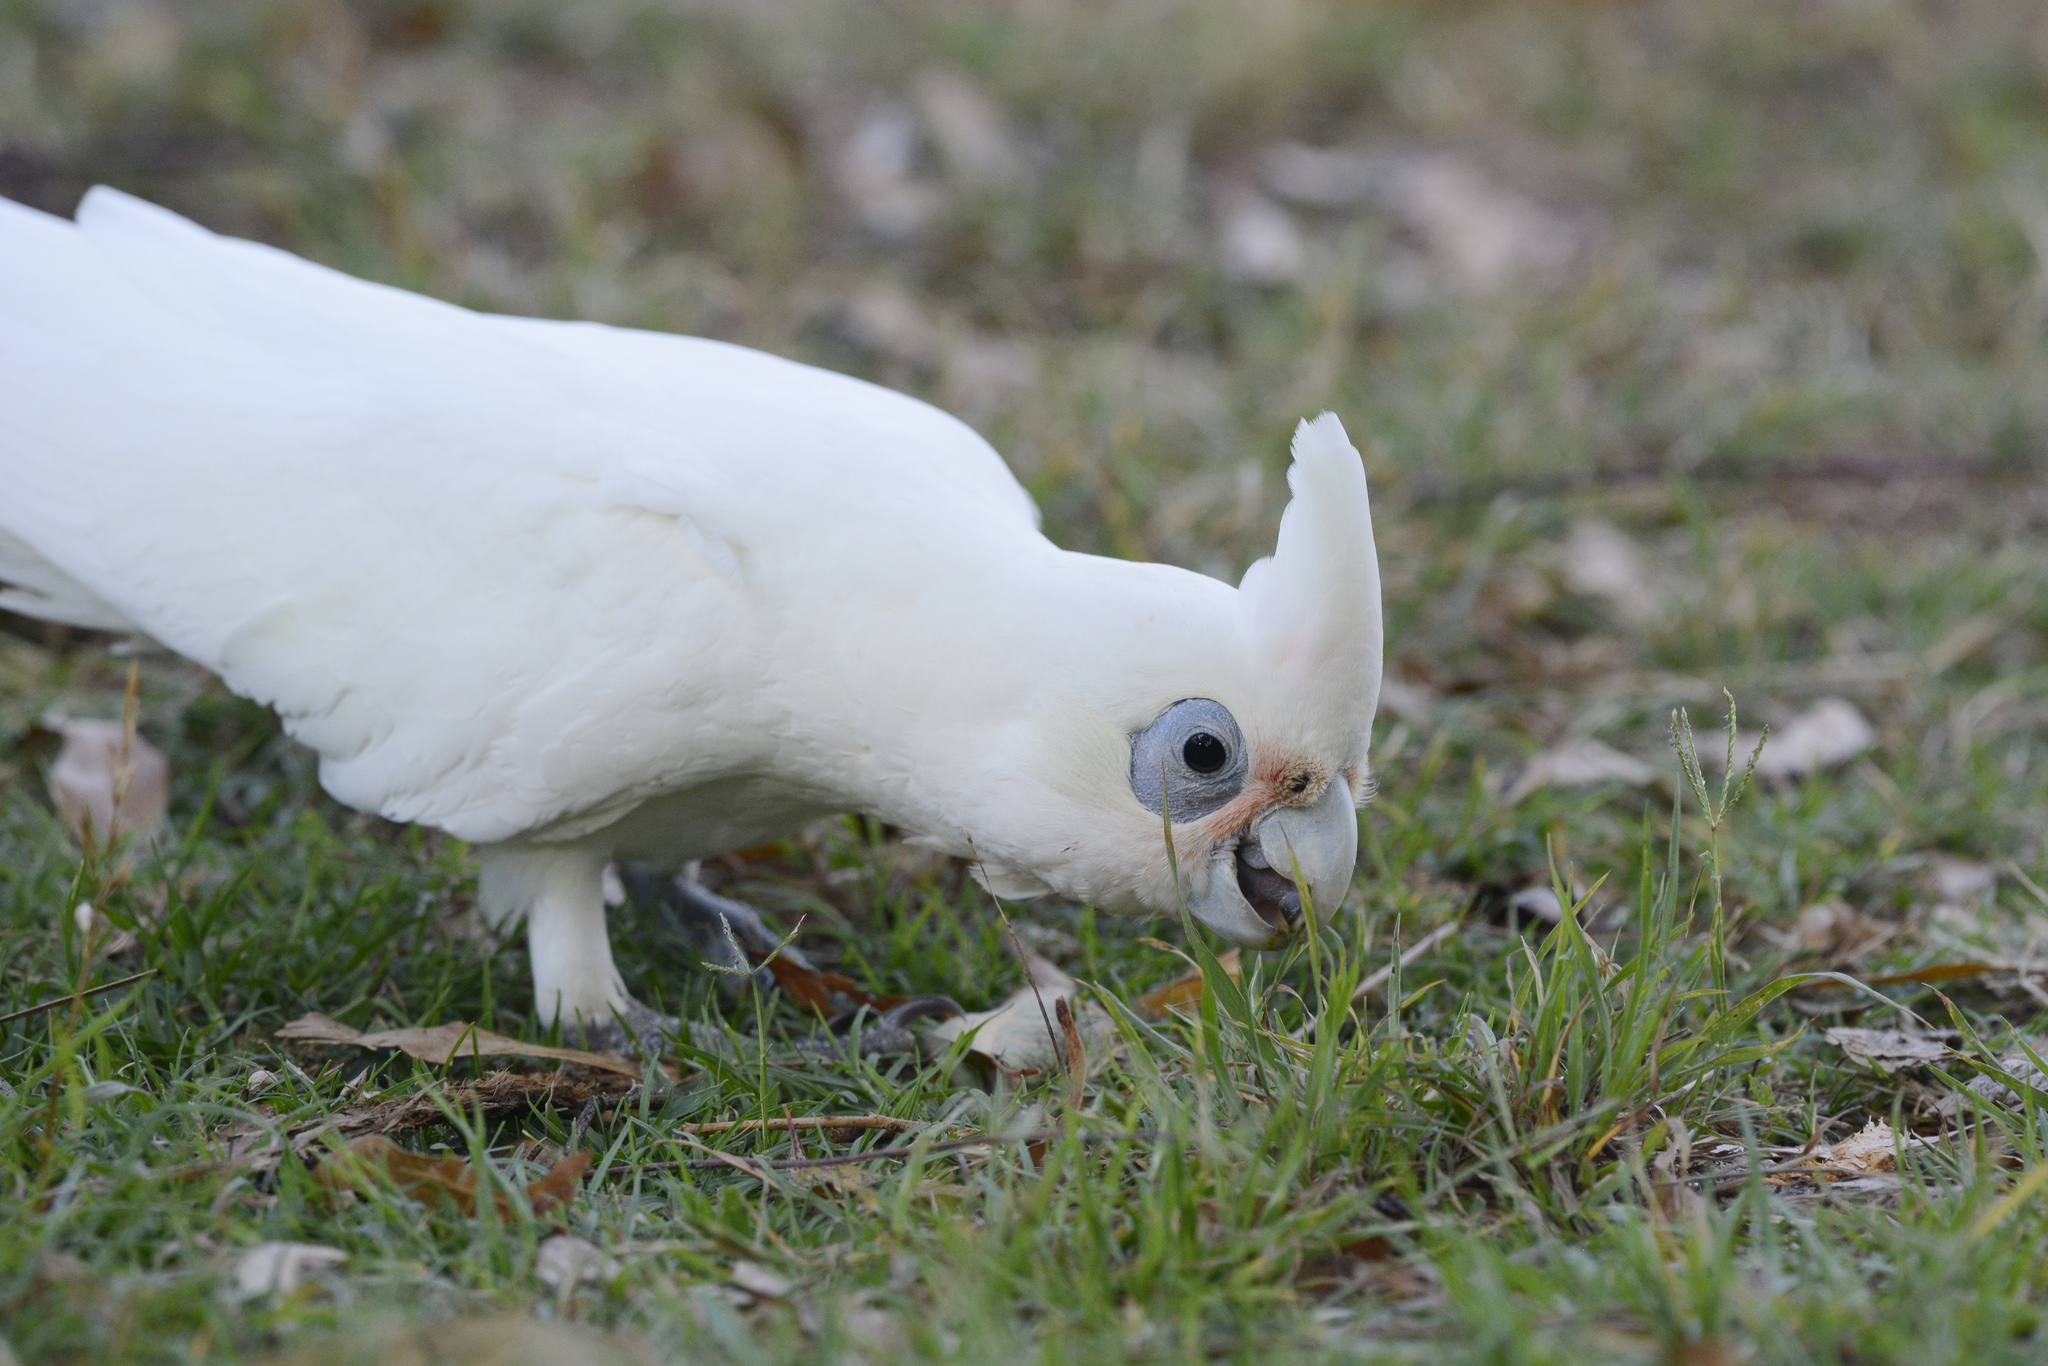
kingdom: Animalia
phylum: Chordata
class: Aves
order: Psittaciformes
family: Psittacidae
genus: Cacatua
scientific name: Cacatua sanguinea
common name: Little corella
